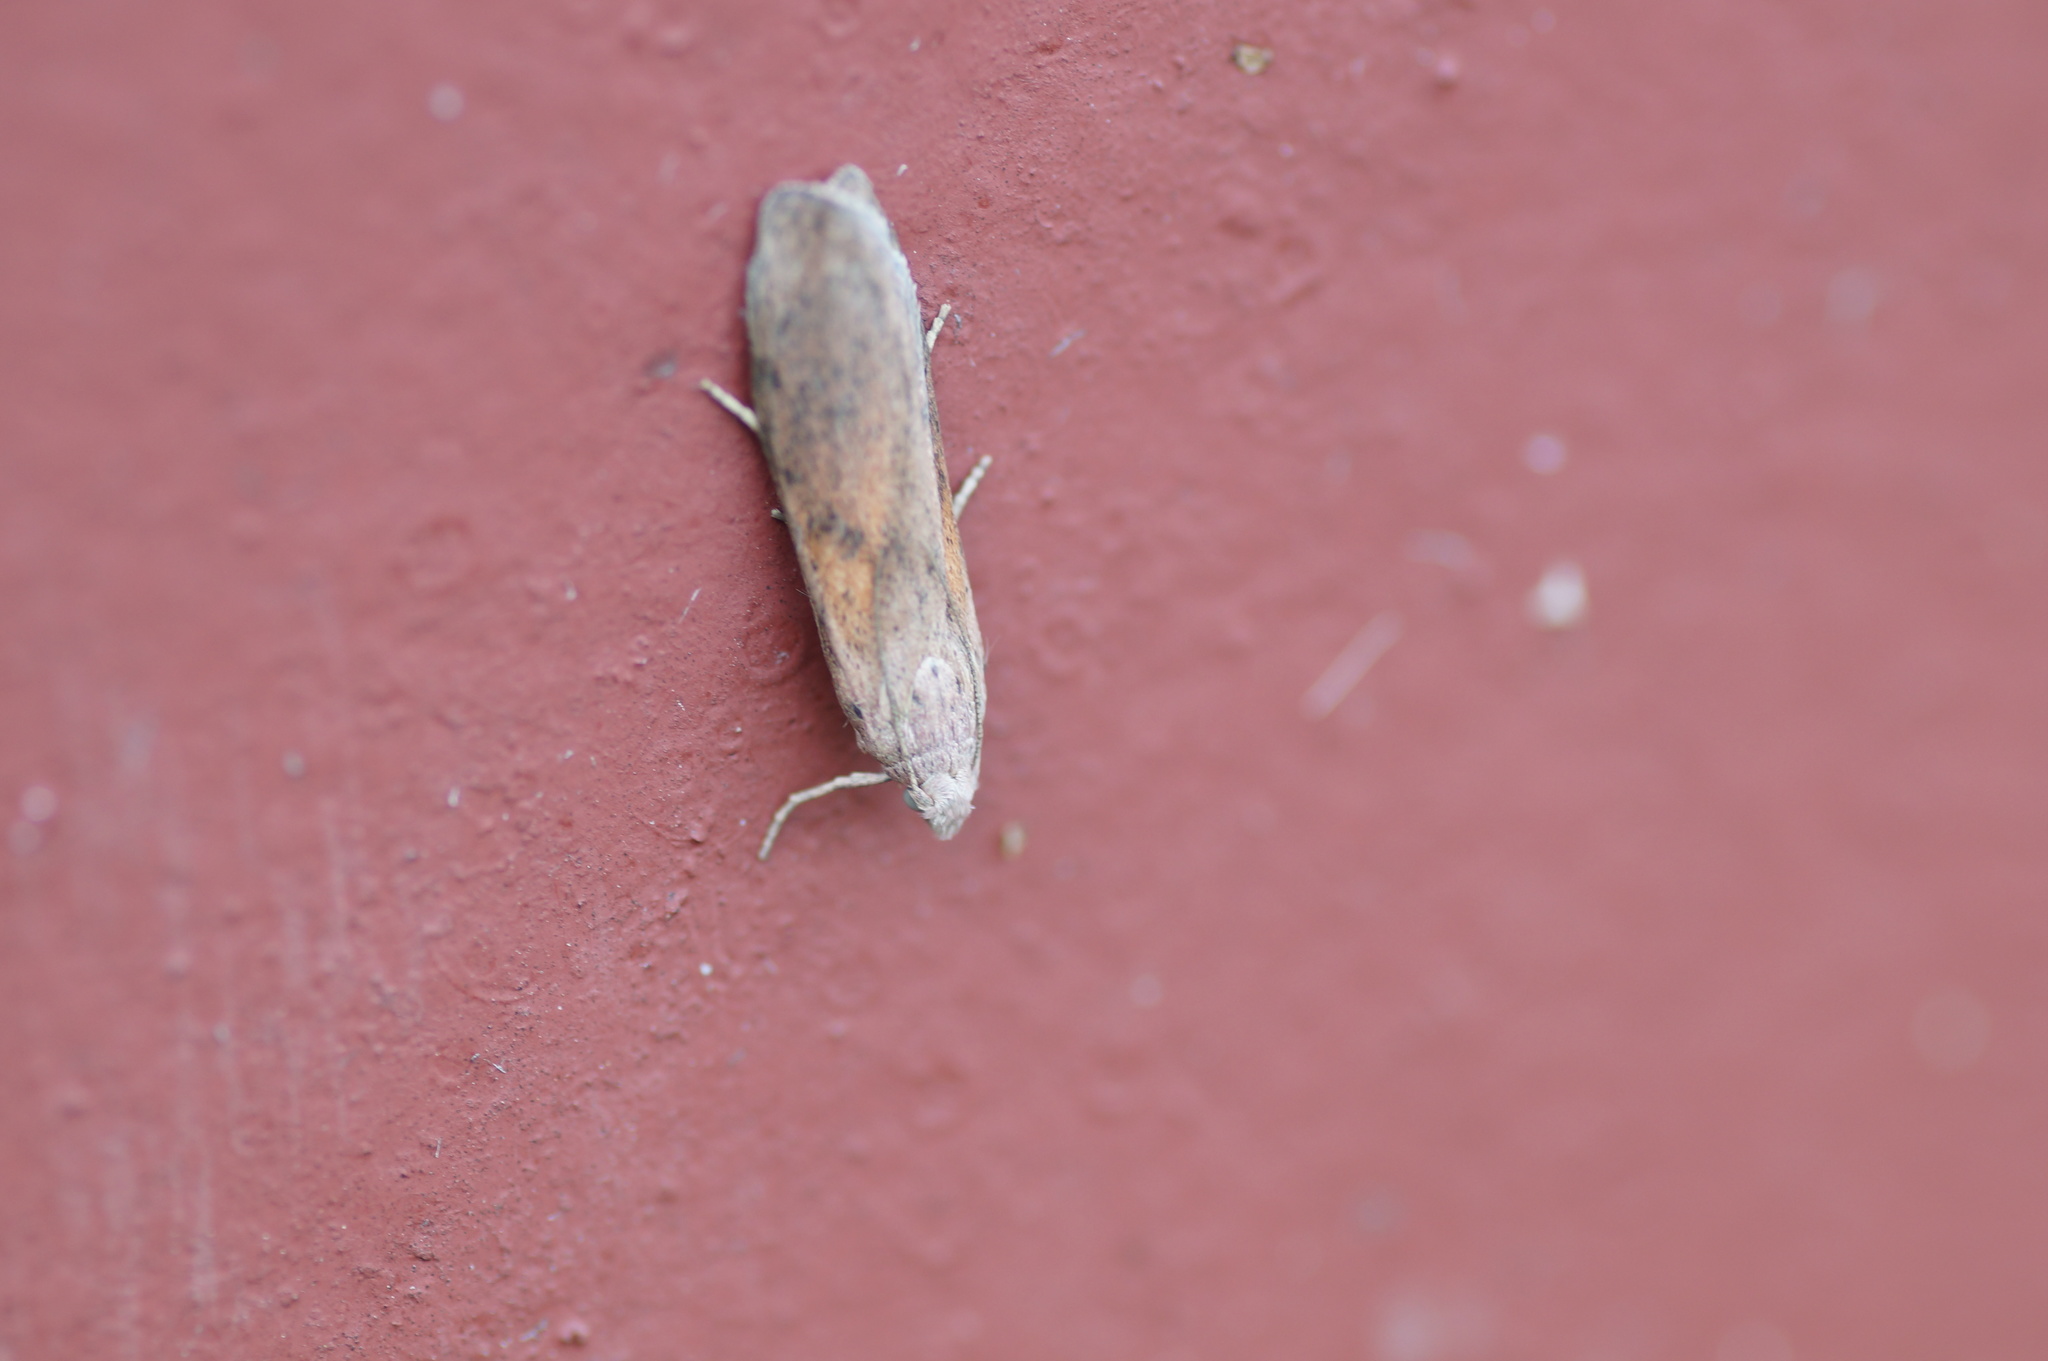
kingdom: Animalia
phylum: Arthropoda
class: Insecta
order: Lepidoptera
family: Pyralidae
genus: Aphomia
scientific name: Aphomia sociella
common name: Bee moth
